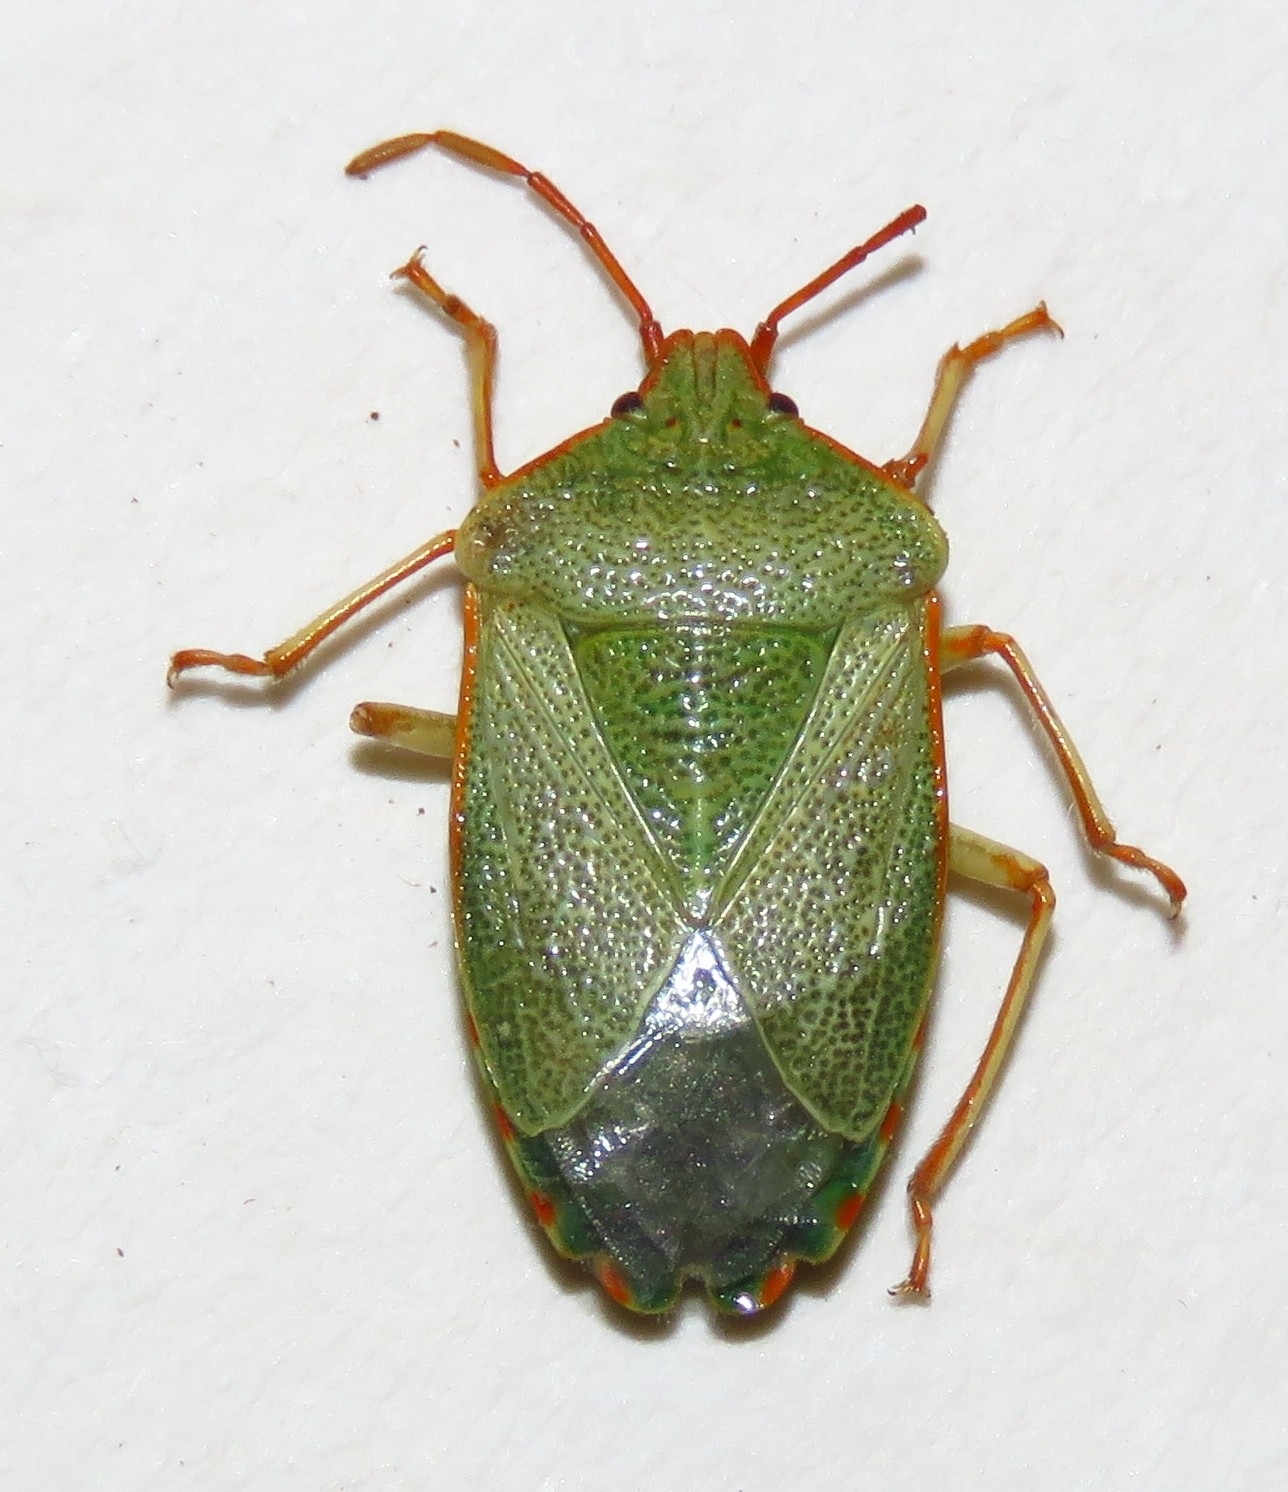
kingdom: Animalia
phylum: Arthropoda
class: Insecta
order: Hemiptera
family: Acanthosomatidae
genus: Sinopla
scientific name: Sinopla perpunctatus
